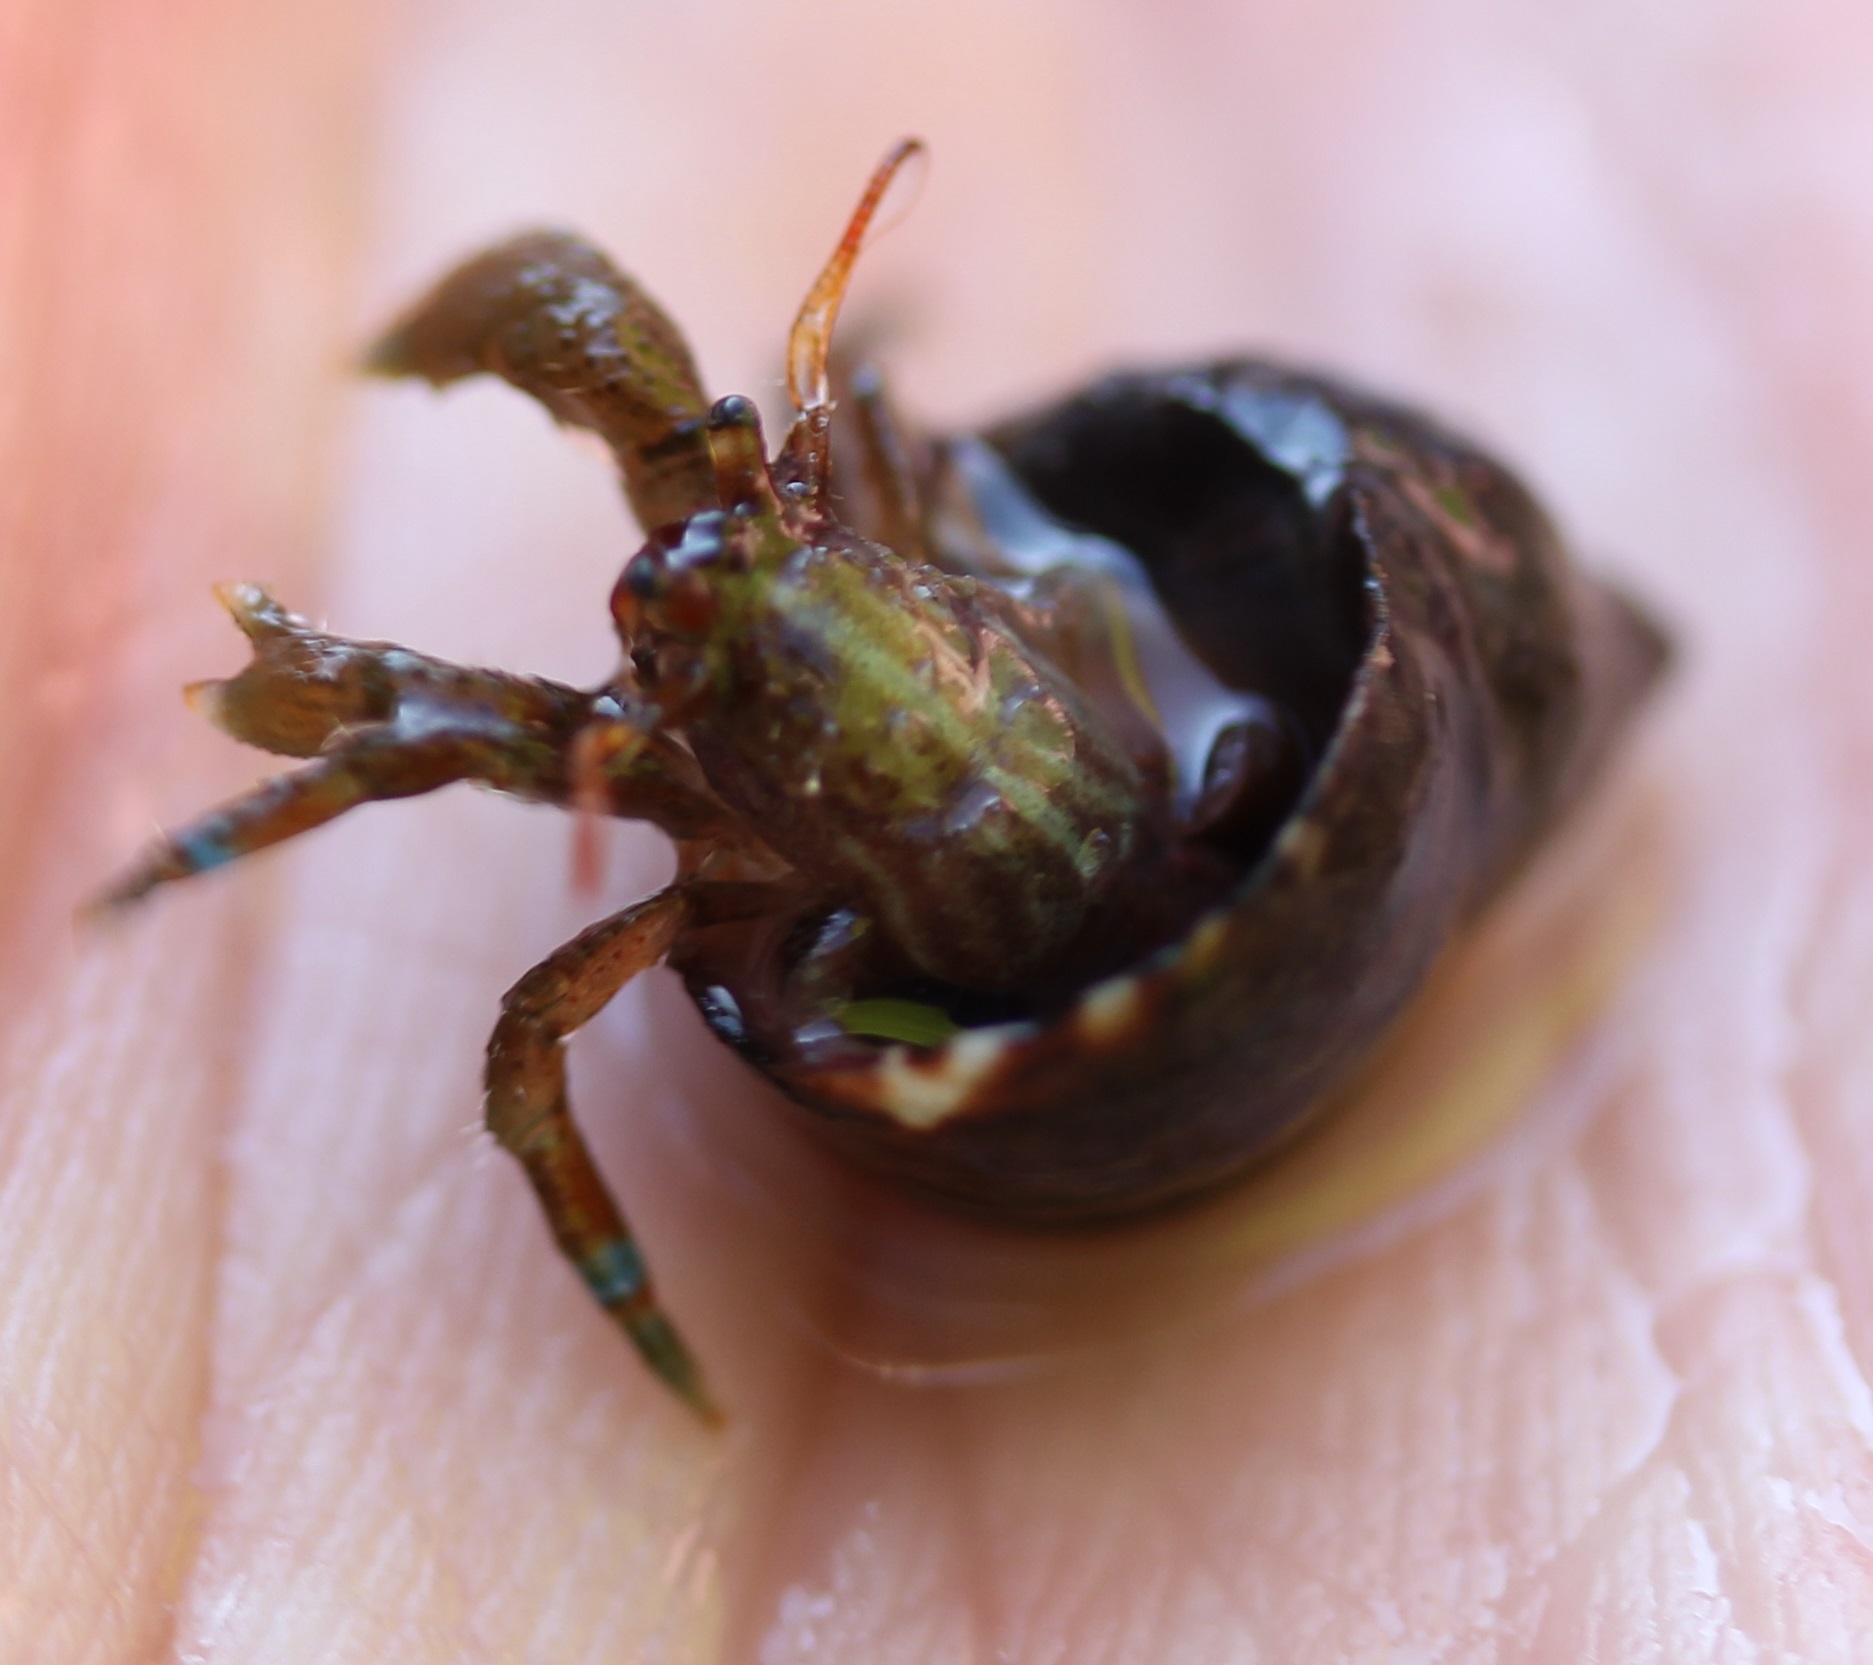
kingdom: Animalia
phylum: Arthropoda
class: Malacostraca
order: Decapoda
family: Paguridae
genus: Pagurus
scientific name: Pagurus samuelis
